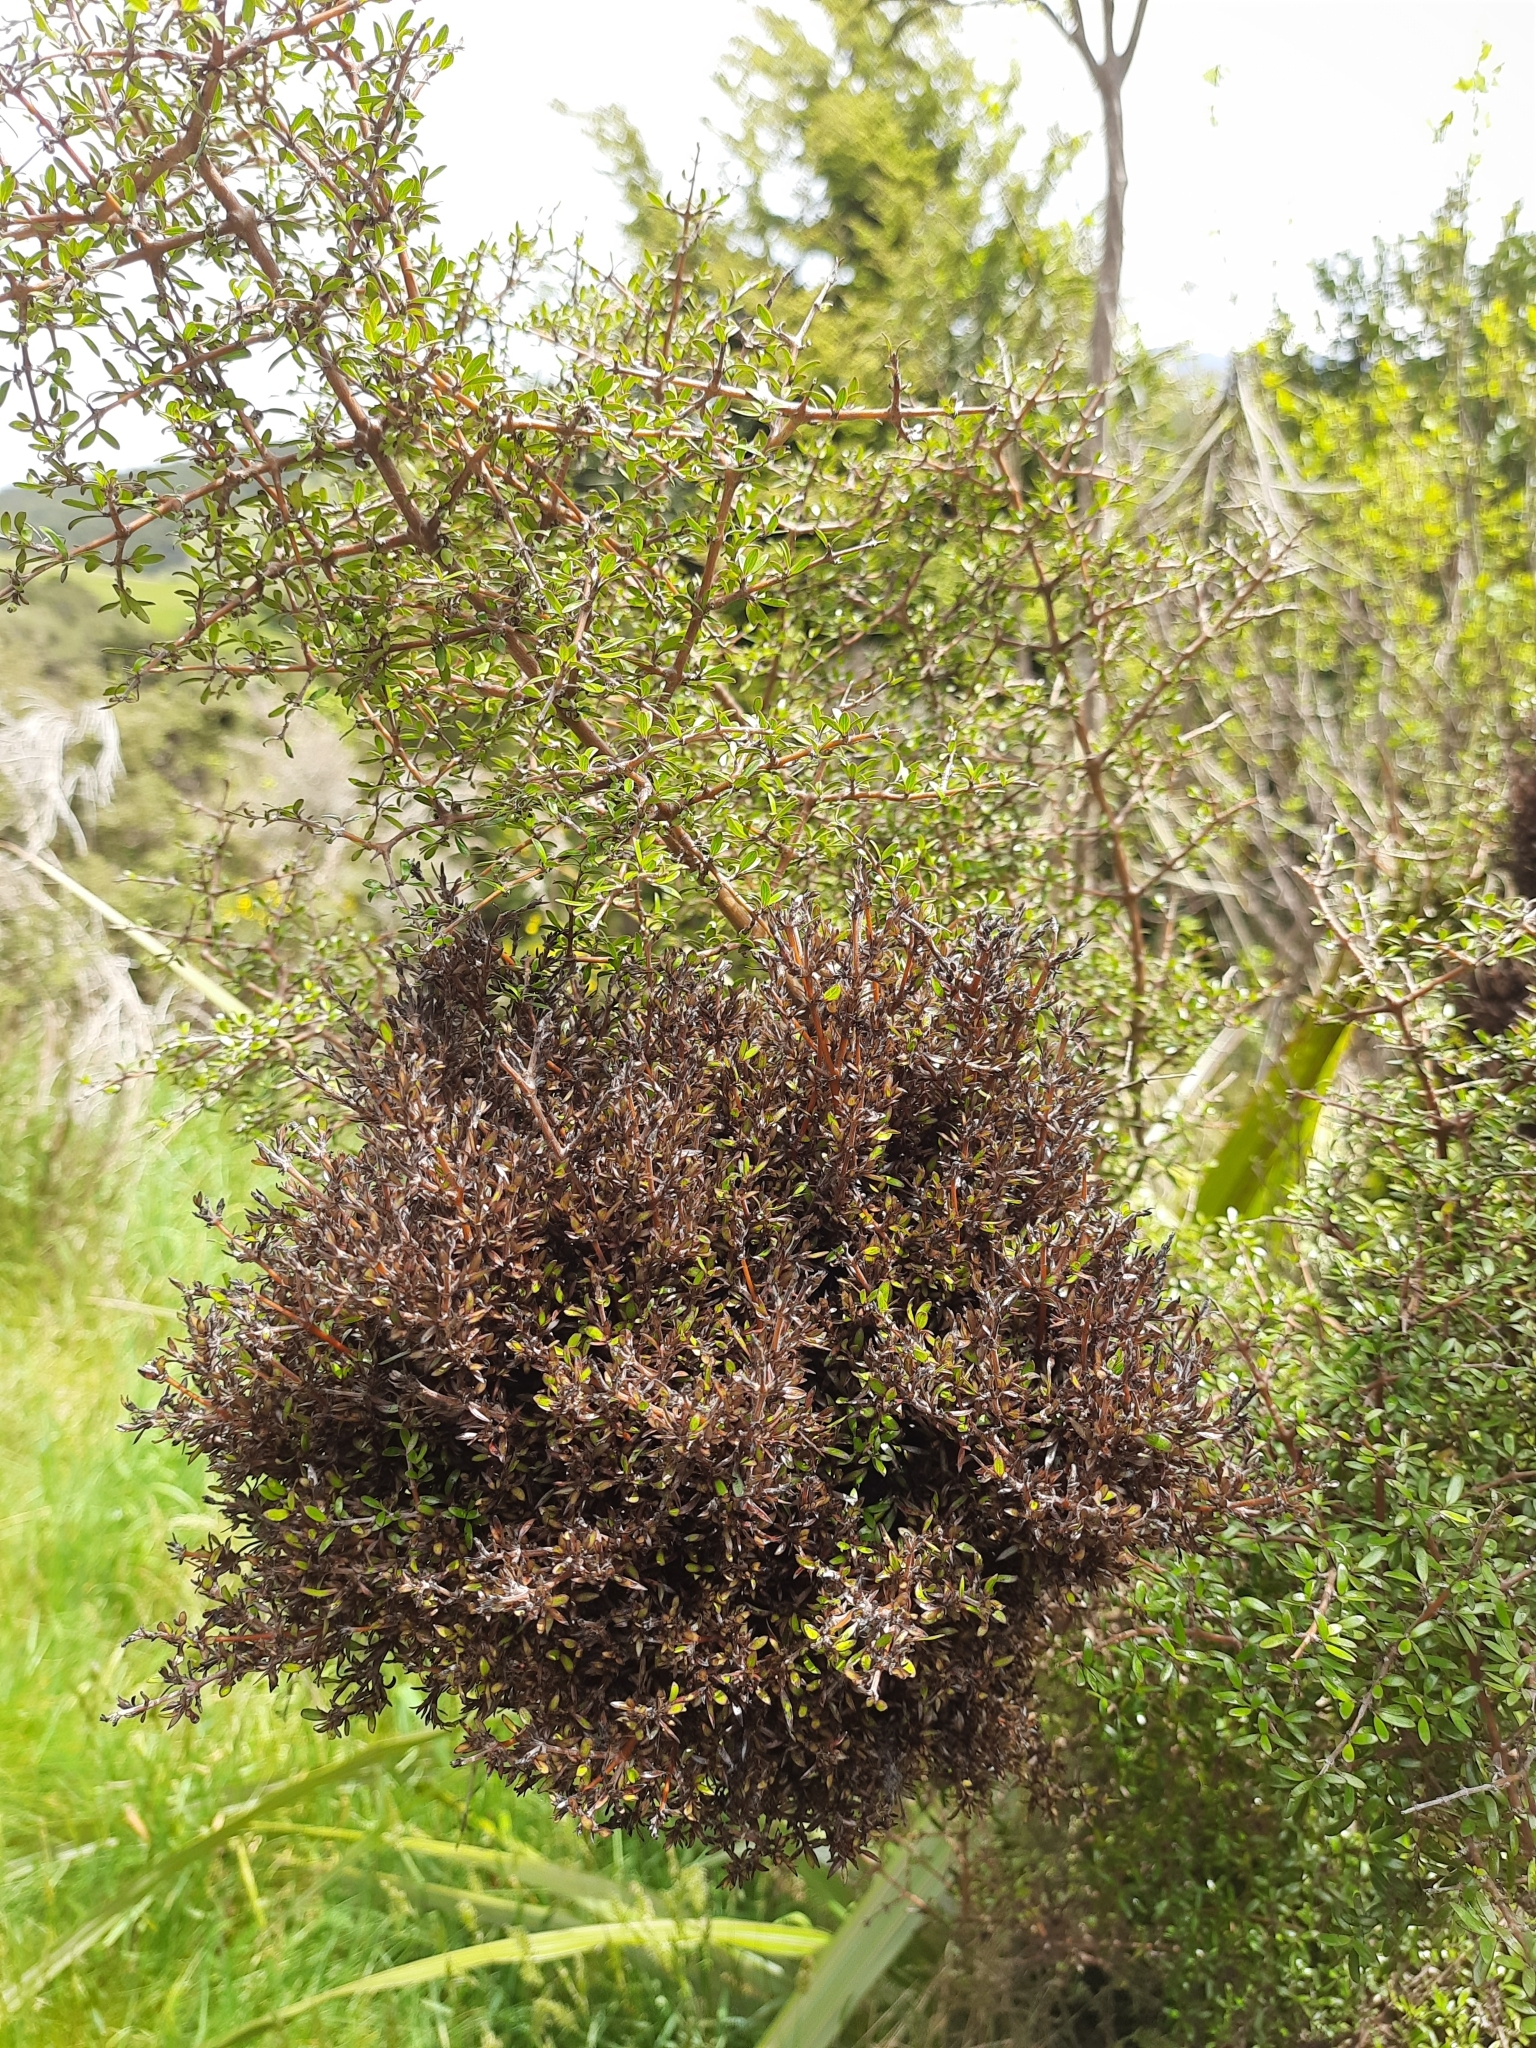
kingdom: Plantae
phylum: Tracheophyta
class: Magnoliopsida
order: Gentianales
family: Rubiaceae
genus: Coprosma
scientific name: Coprosma propinqua
